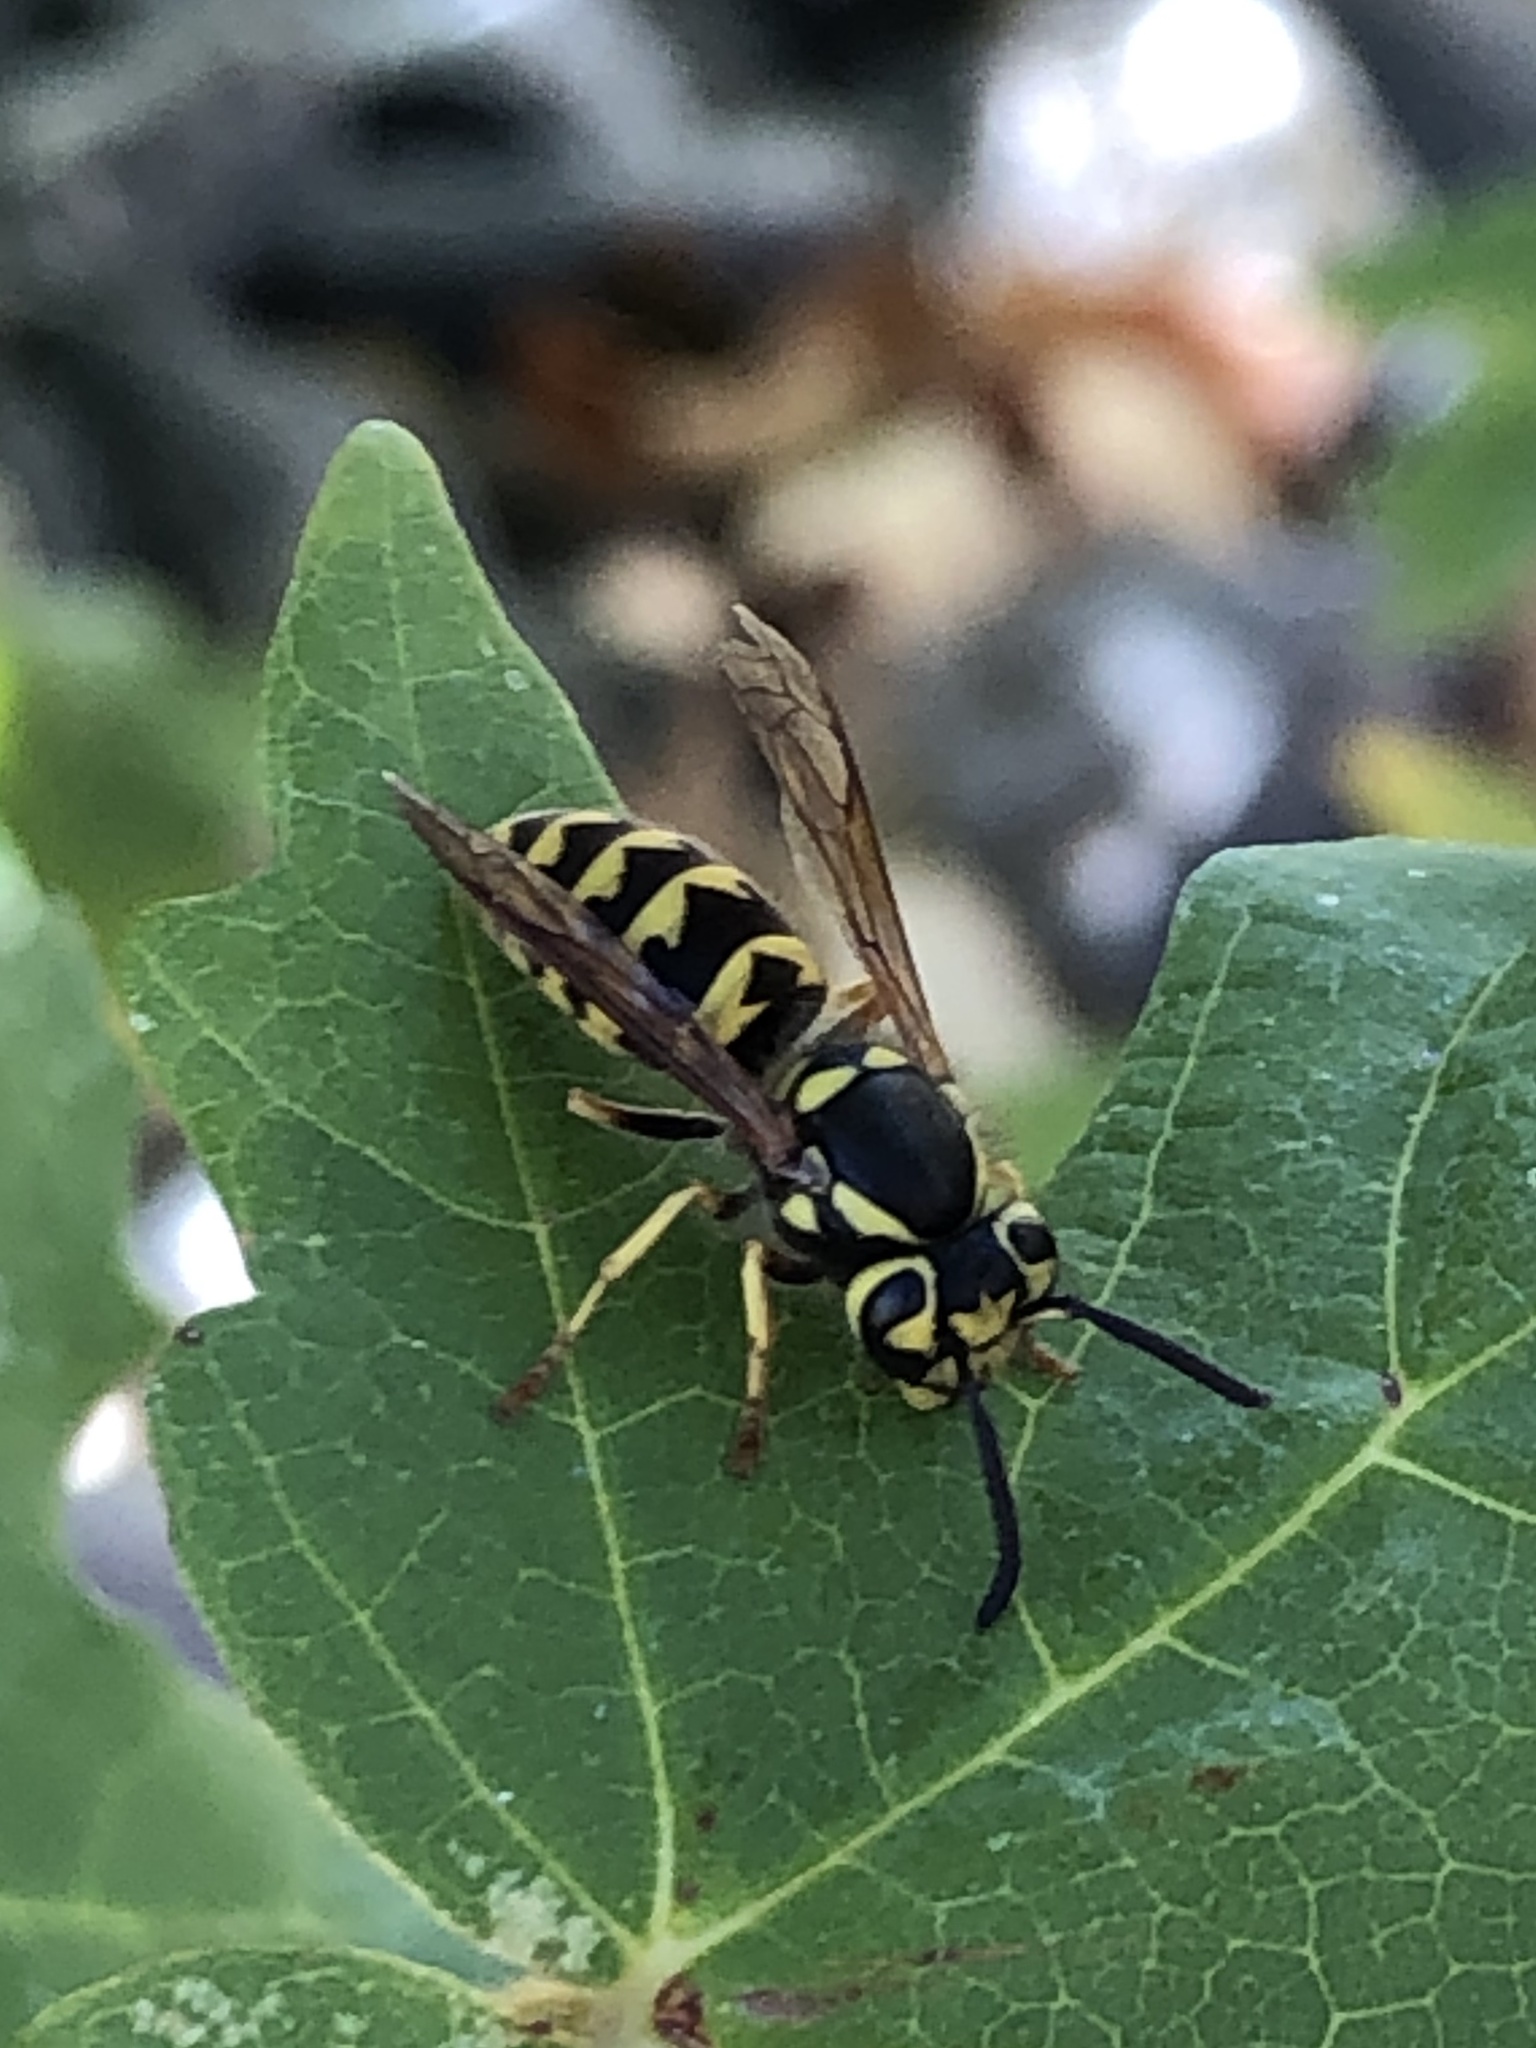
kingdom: Animalia
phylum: Arthropoda
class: Insecta
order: Hymenoptera
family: Vespidae
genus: Vespula
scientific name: Vespula pensylvanica
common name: Western yellowjacket
